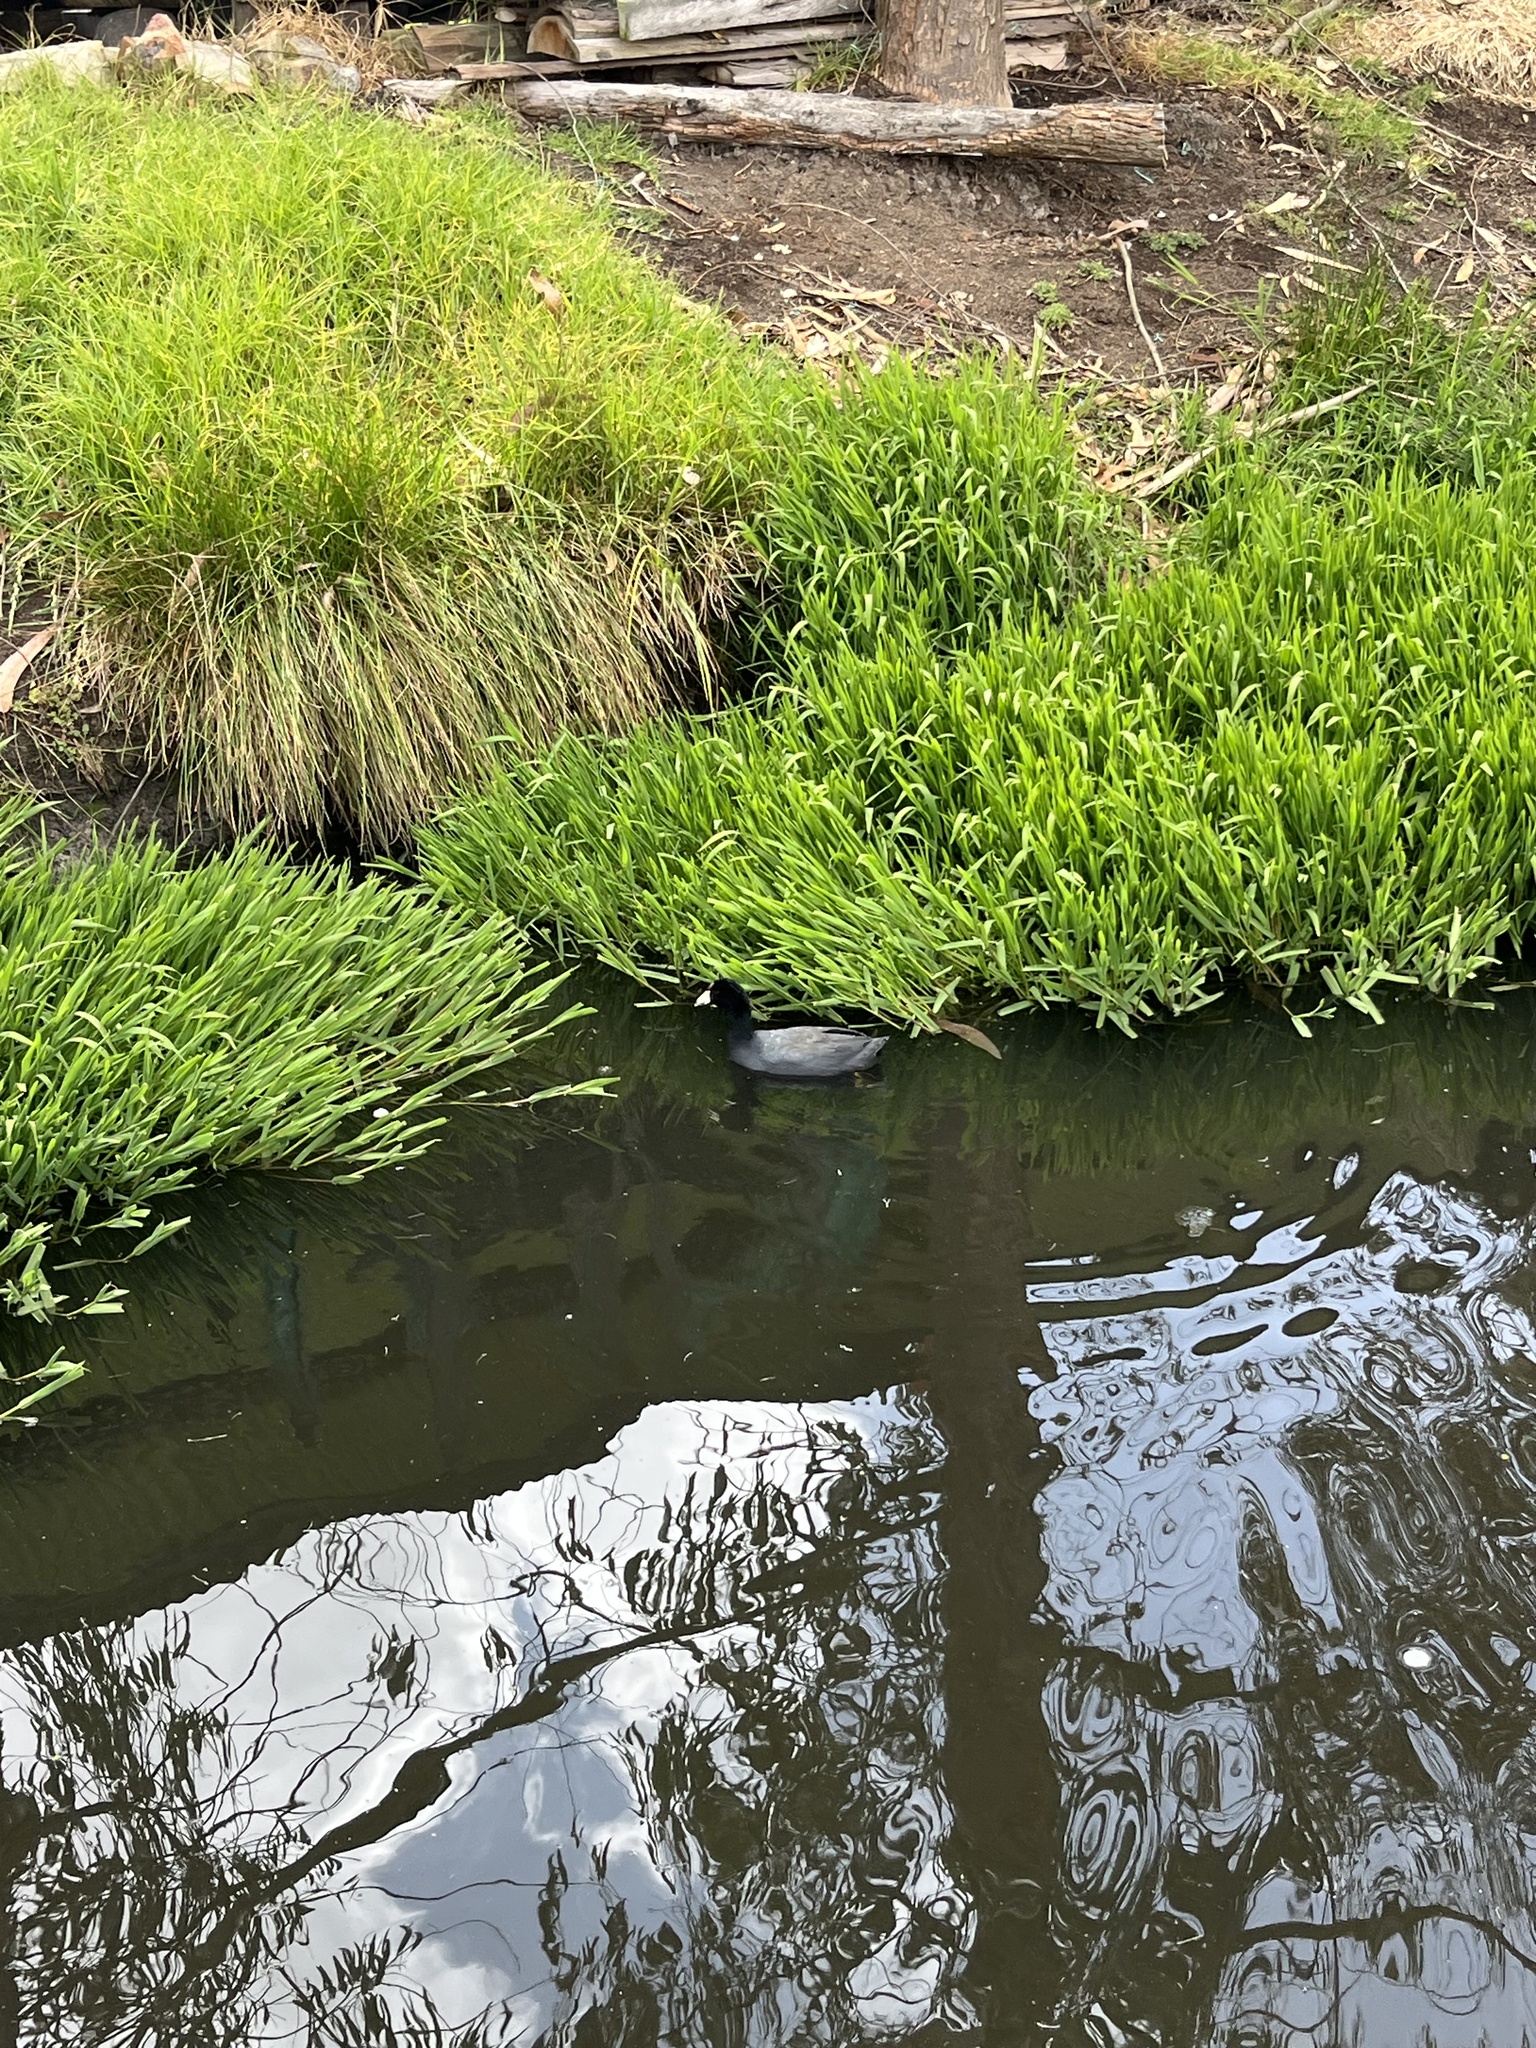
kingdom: Animalia
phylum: Chordata
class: Aves
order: Gruiformes
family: Rallidae
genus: Fulica
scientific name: Fulica americana
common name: American coot
